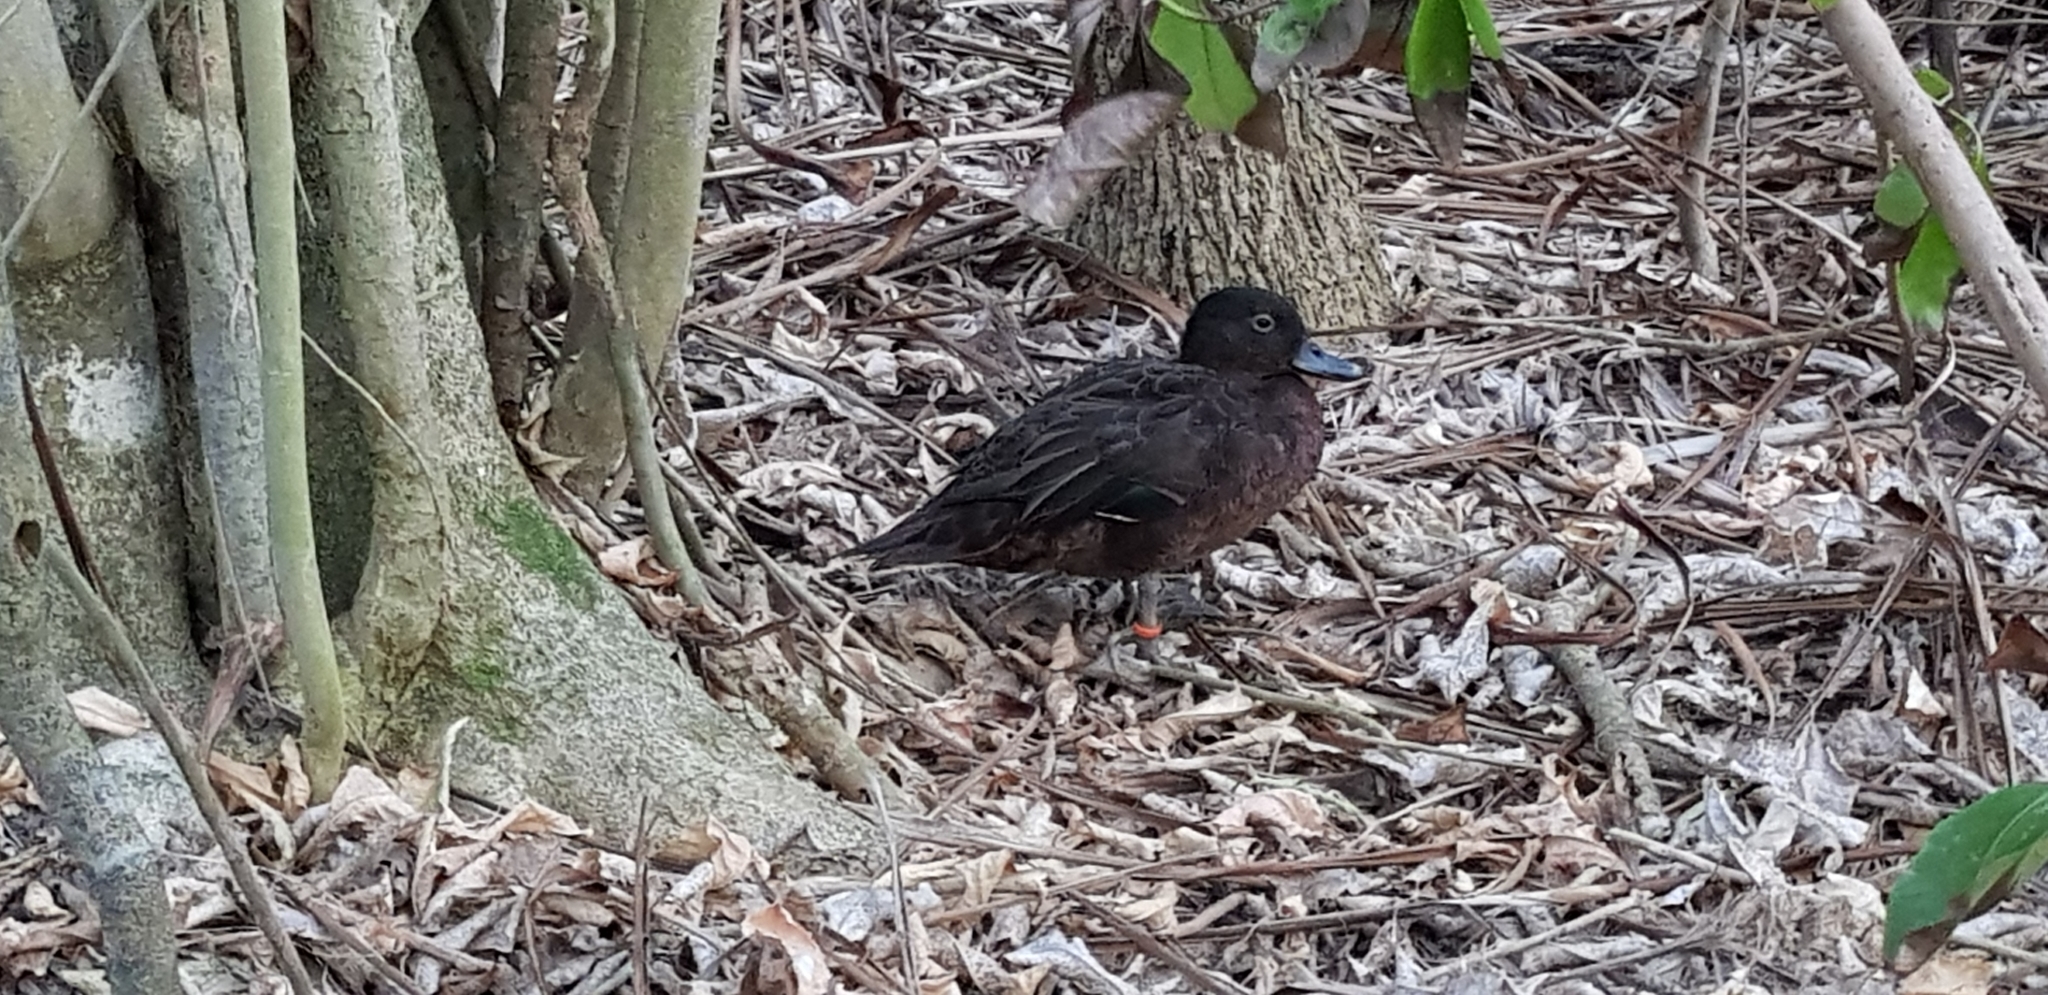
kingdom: Animalia
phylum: Chordata
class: Aves
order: Anseriformes
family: Anatidae
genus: Anas
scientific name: Anas chlorotis
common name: Brown teal
